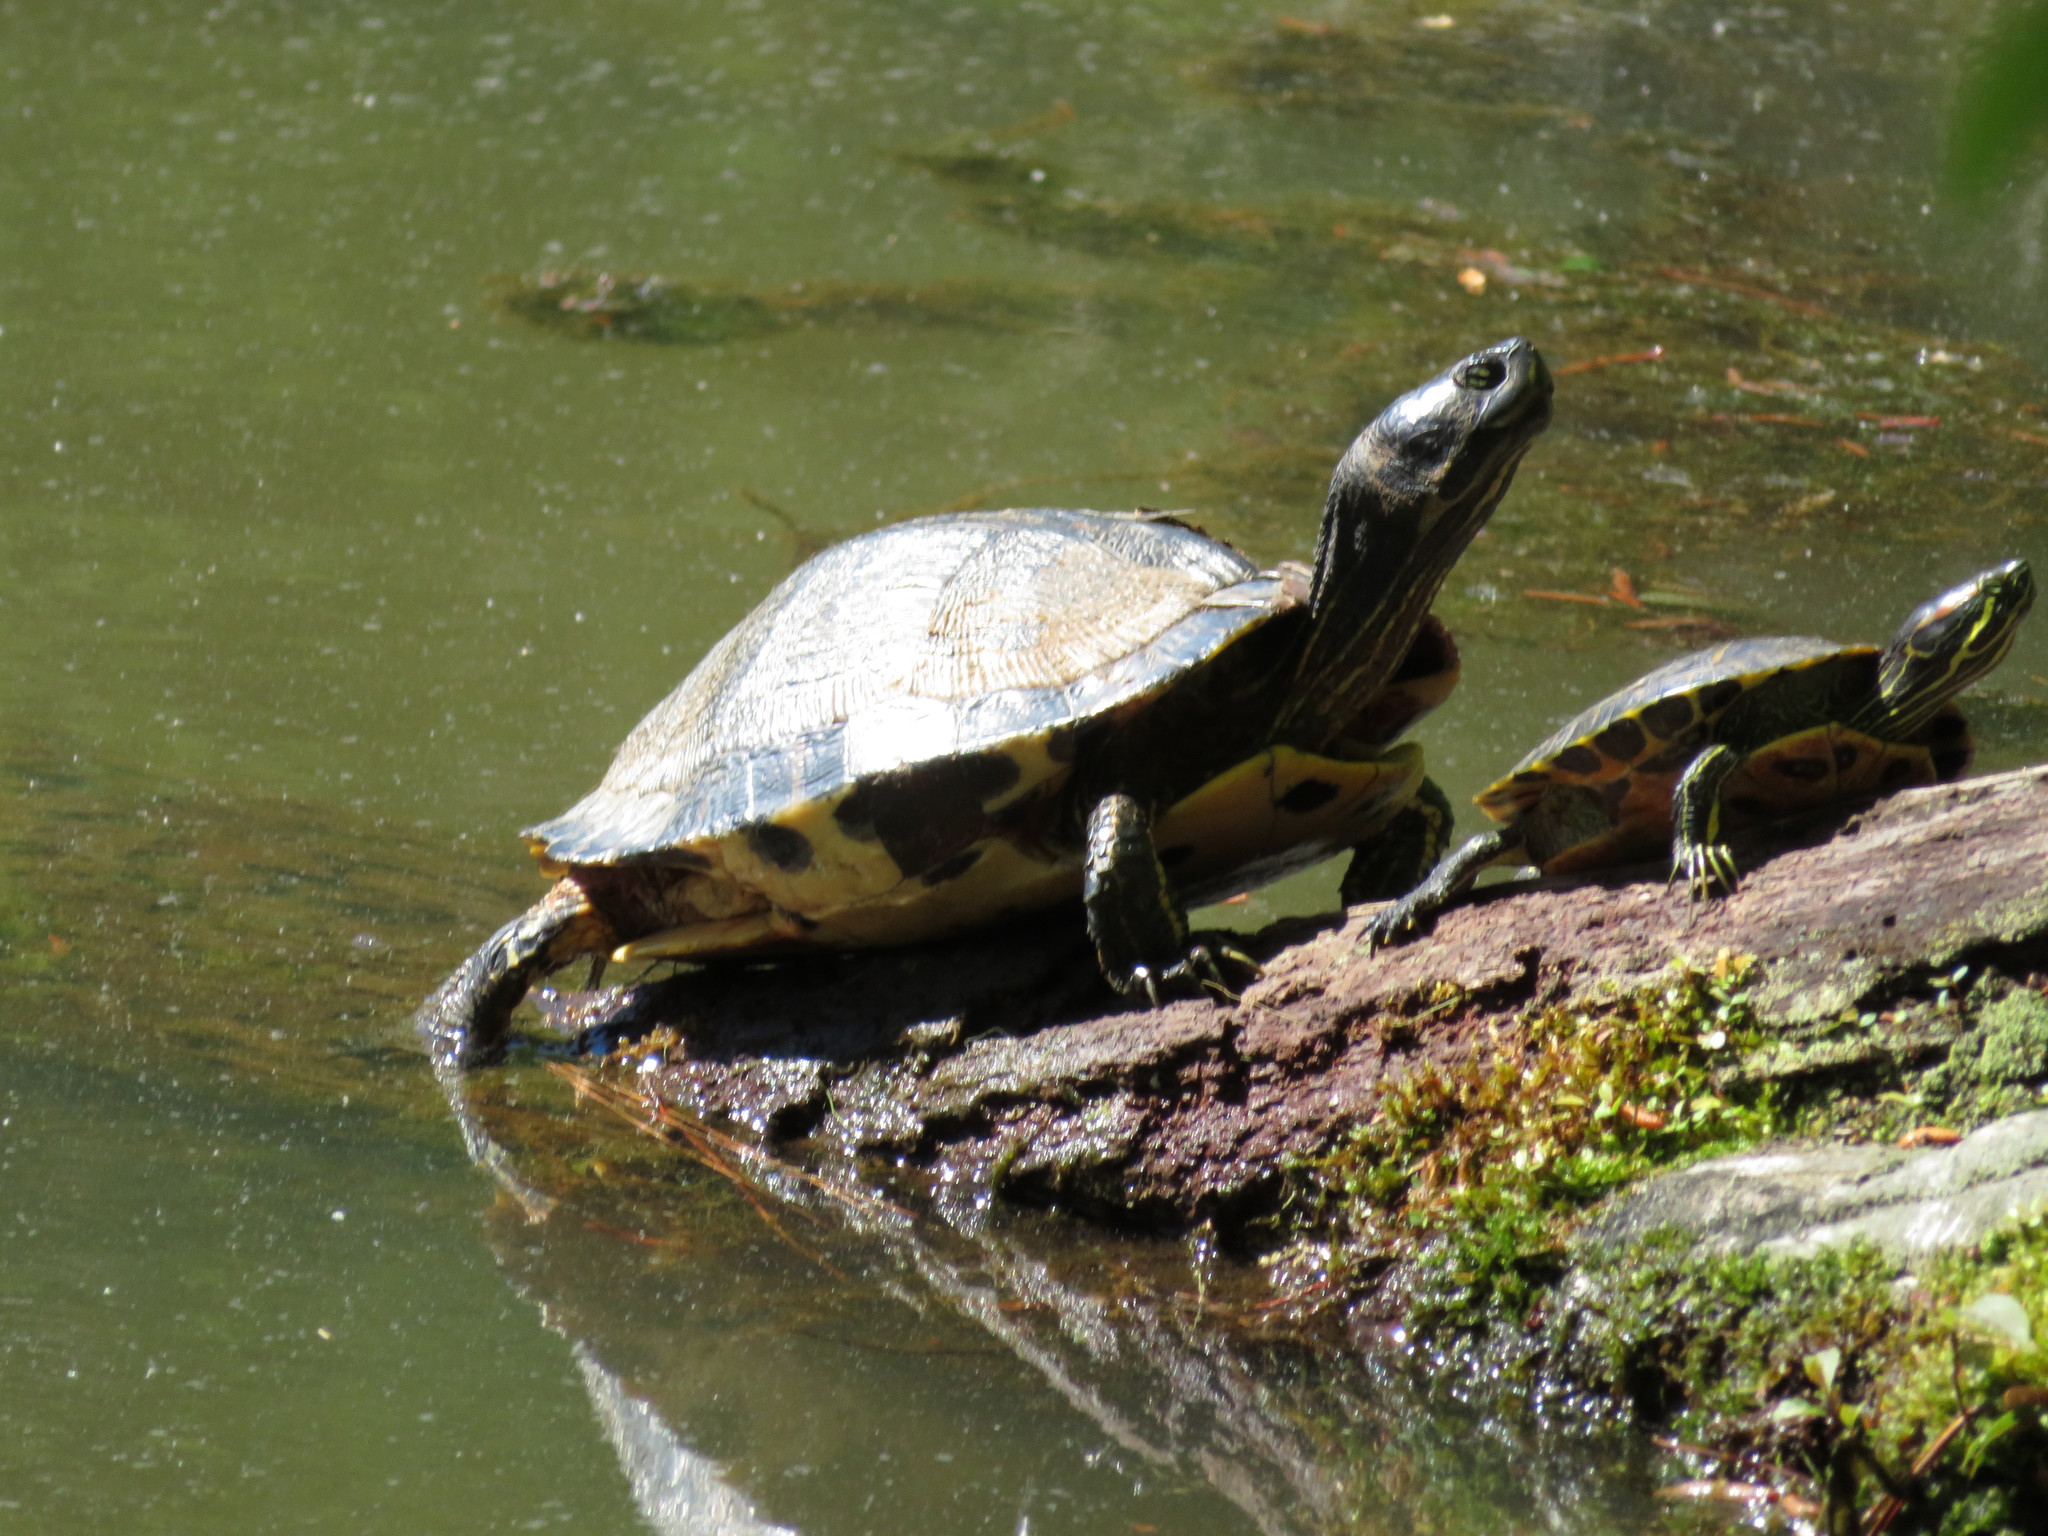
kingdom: Animalia
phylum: Chordata
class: Testudines
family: Emydidae
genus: Trachemys
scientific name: Trachemys scripta
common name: Slider
